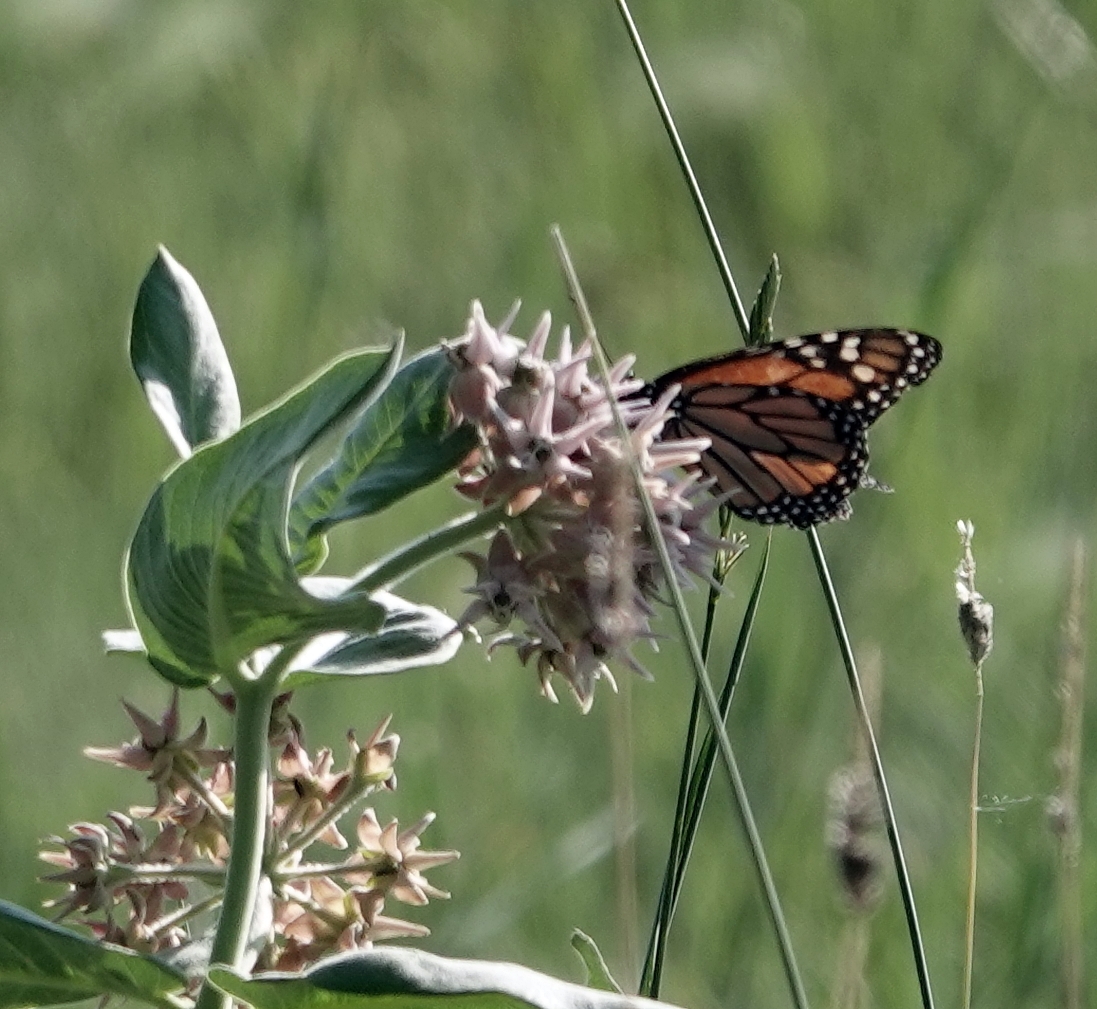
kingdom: Animalia
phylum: Arthropoda
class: Insecta
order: Lepidoptera
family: Nymphalidae
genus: Danaus
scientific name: Danaus plexippus
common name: Monarch
